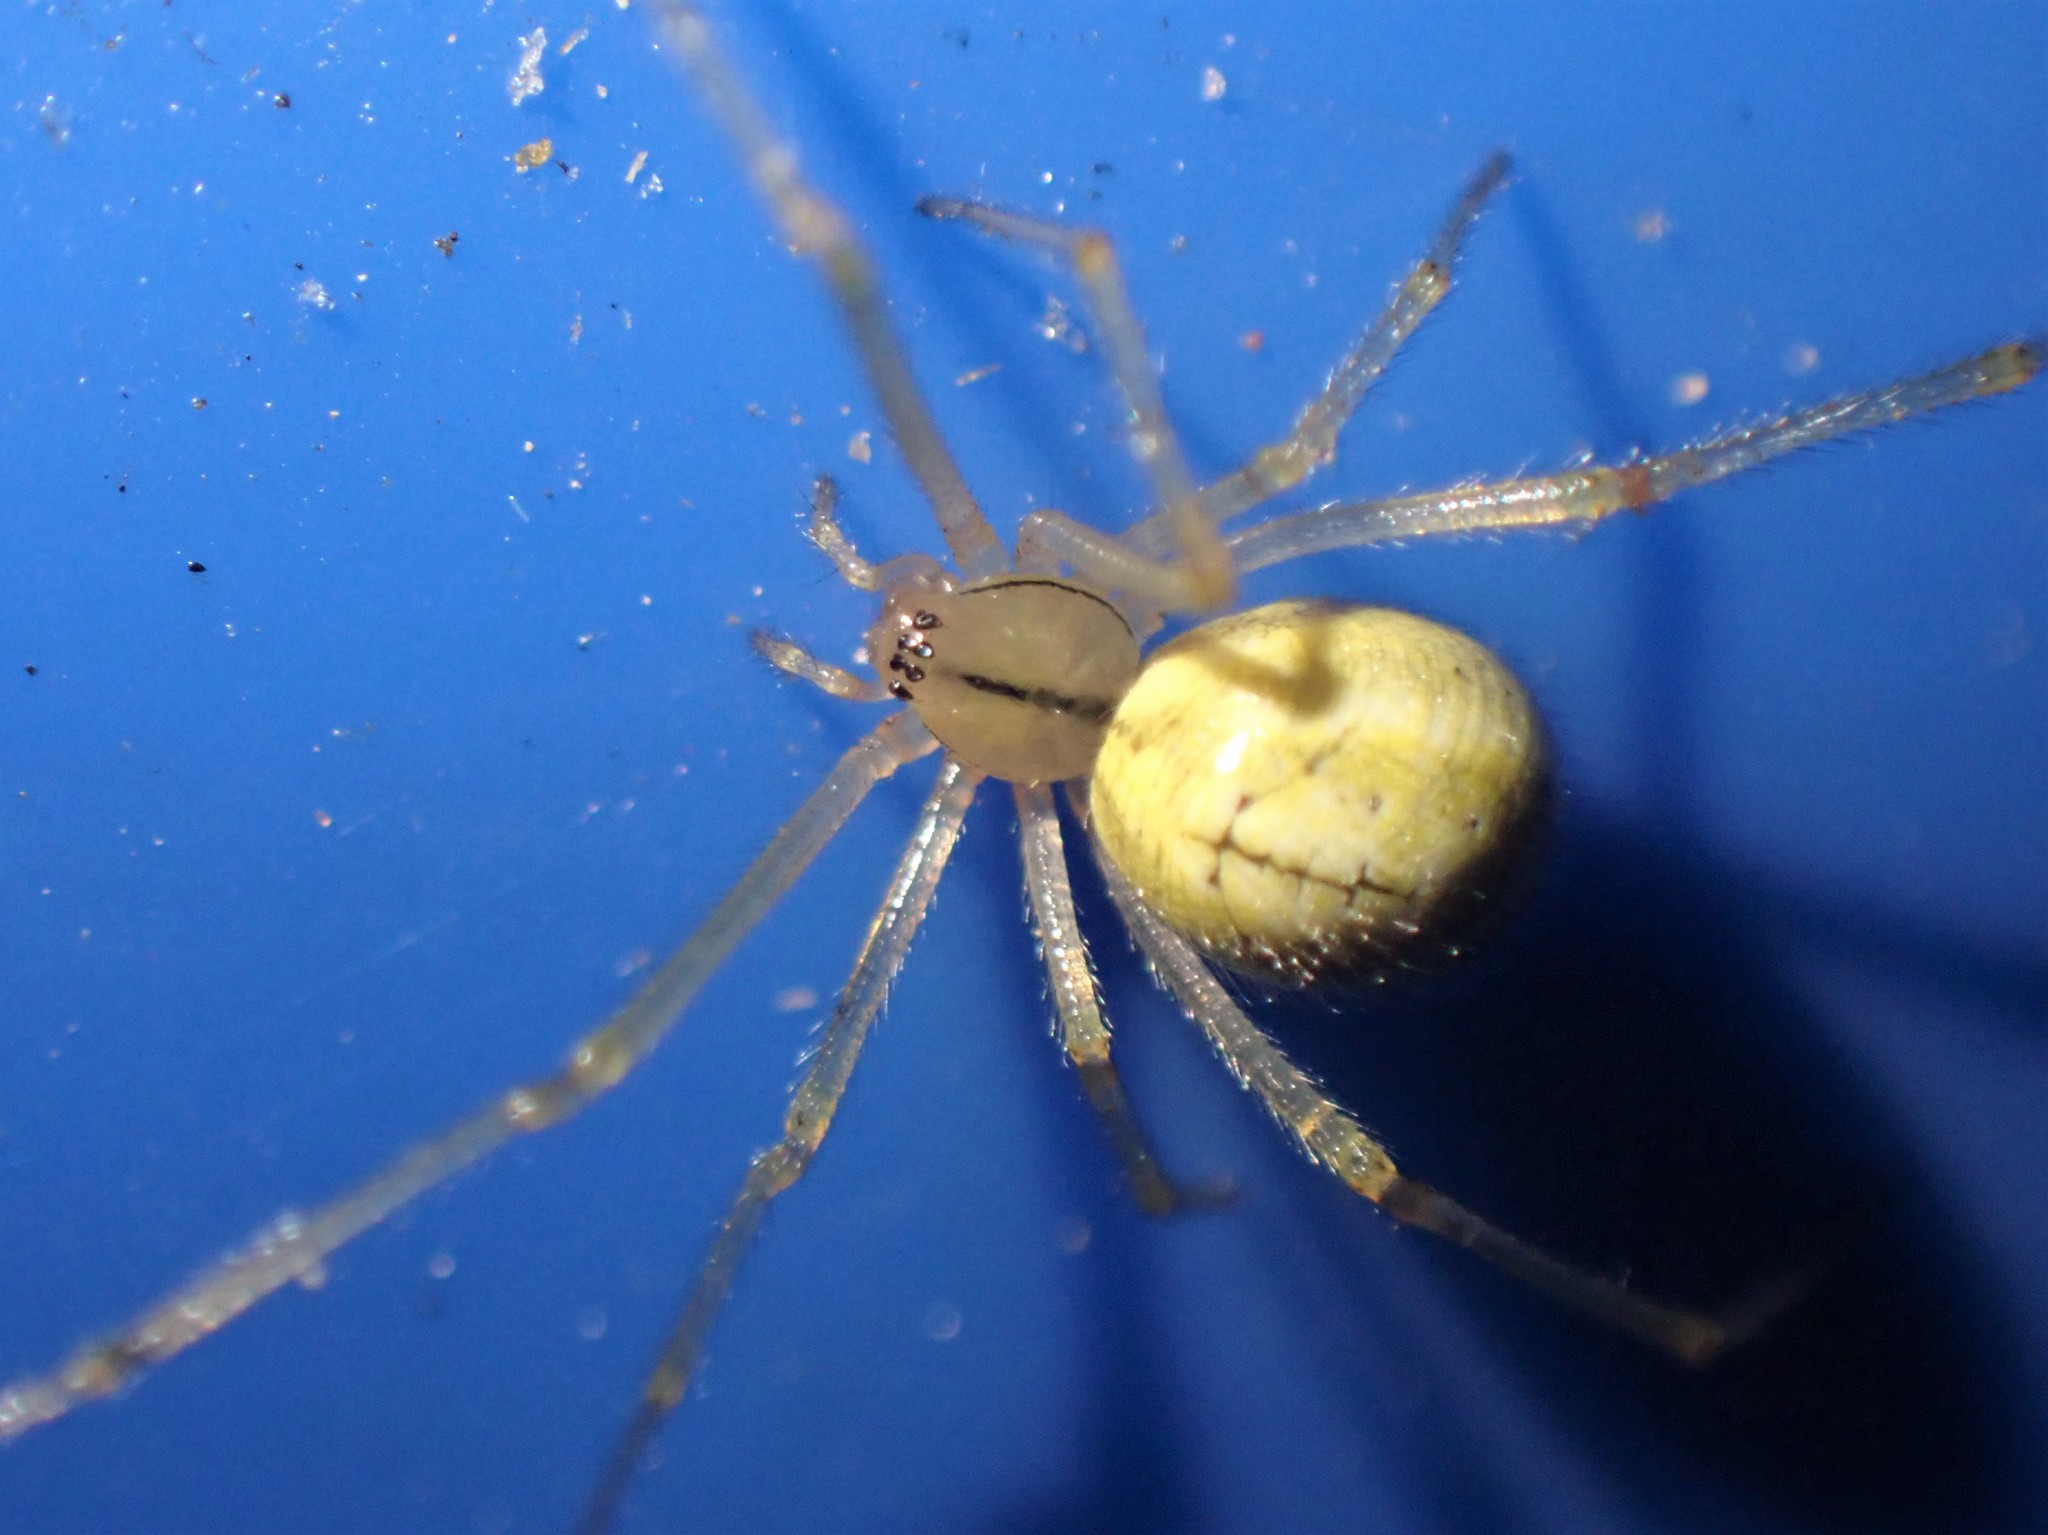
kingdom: Animalia
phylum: Arthropoda
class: Arachnida
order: Araneae
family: Theridiidae
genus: Enoplognatha
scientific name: Enoplognatha ovata
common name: Common candy-striped spider
